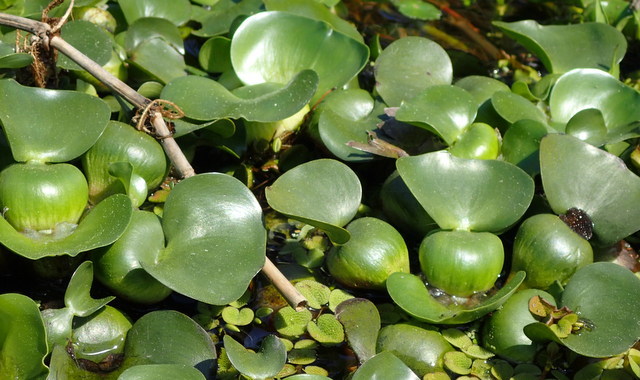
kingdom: Plantae
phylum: Tracheophyta
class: Liliopsida
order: Commelinales
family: Pontederiaceae
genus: Pontederia
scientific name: Pontederia crassipes
